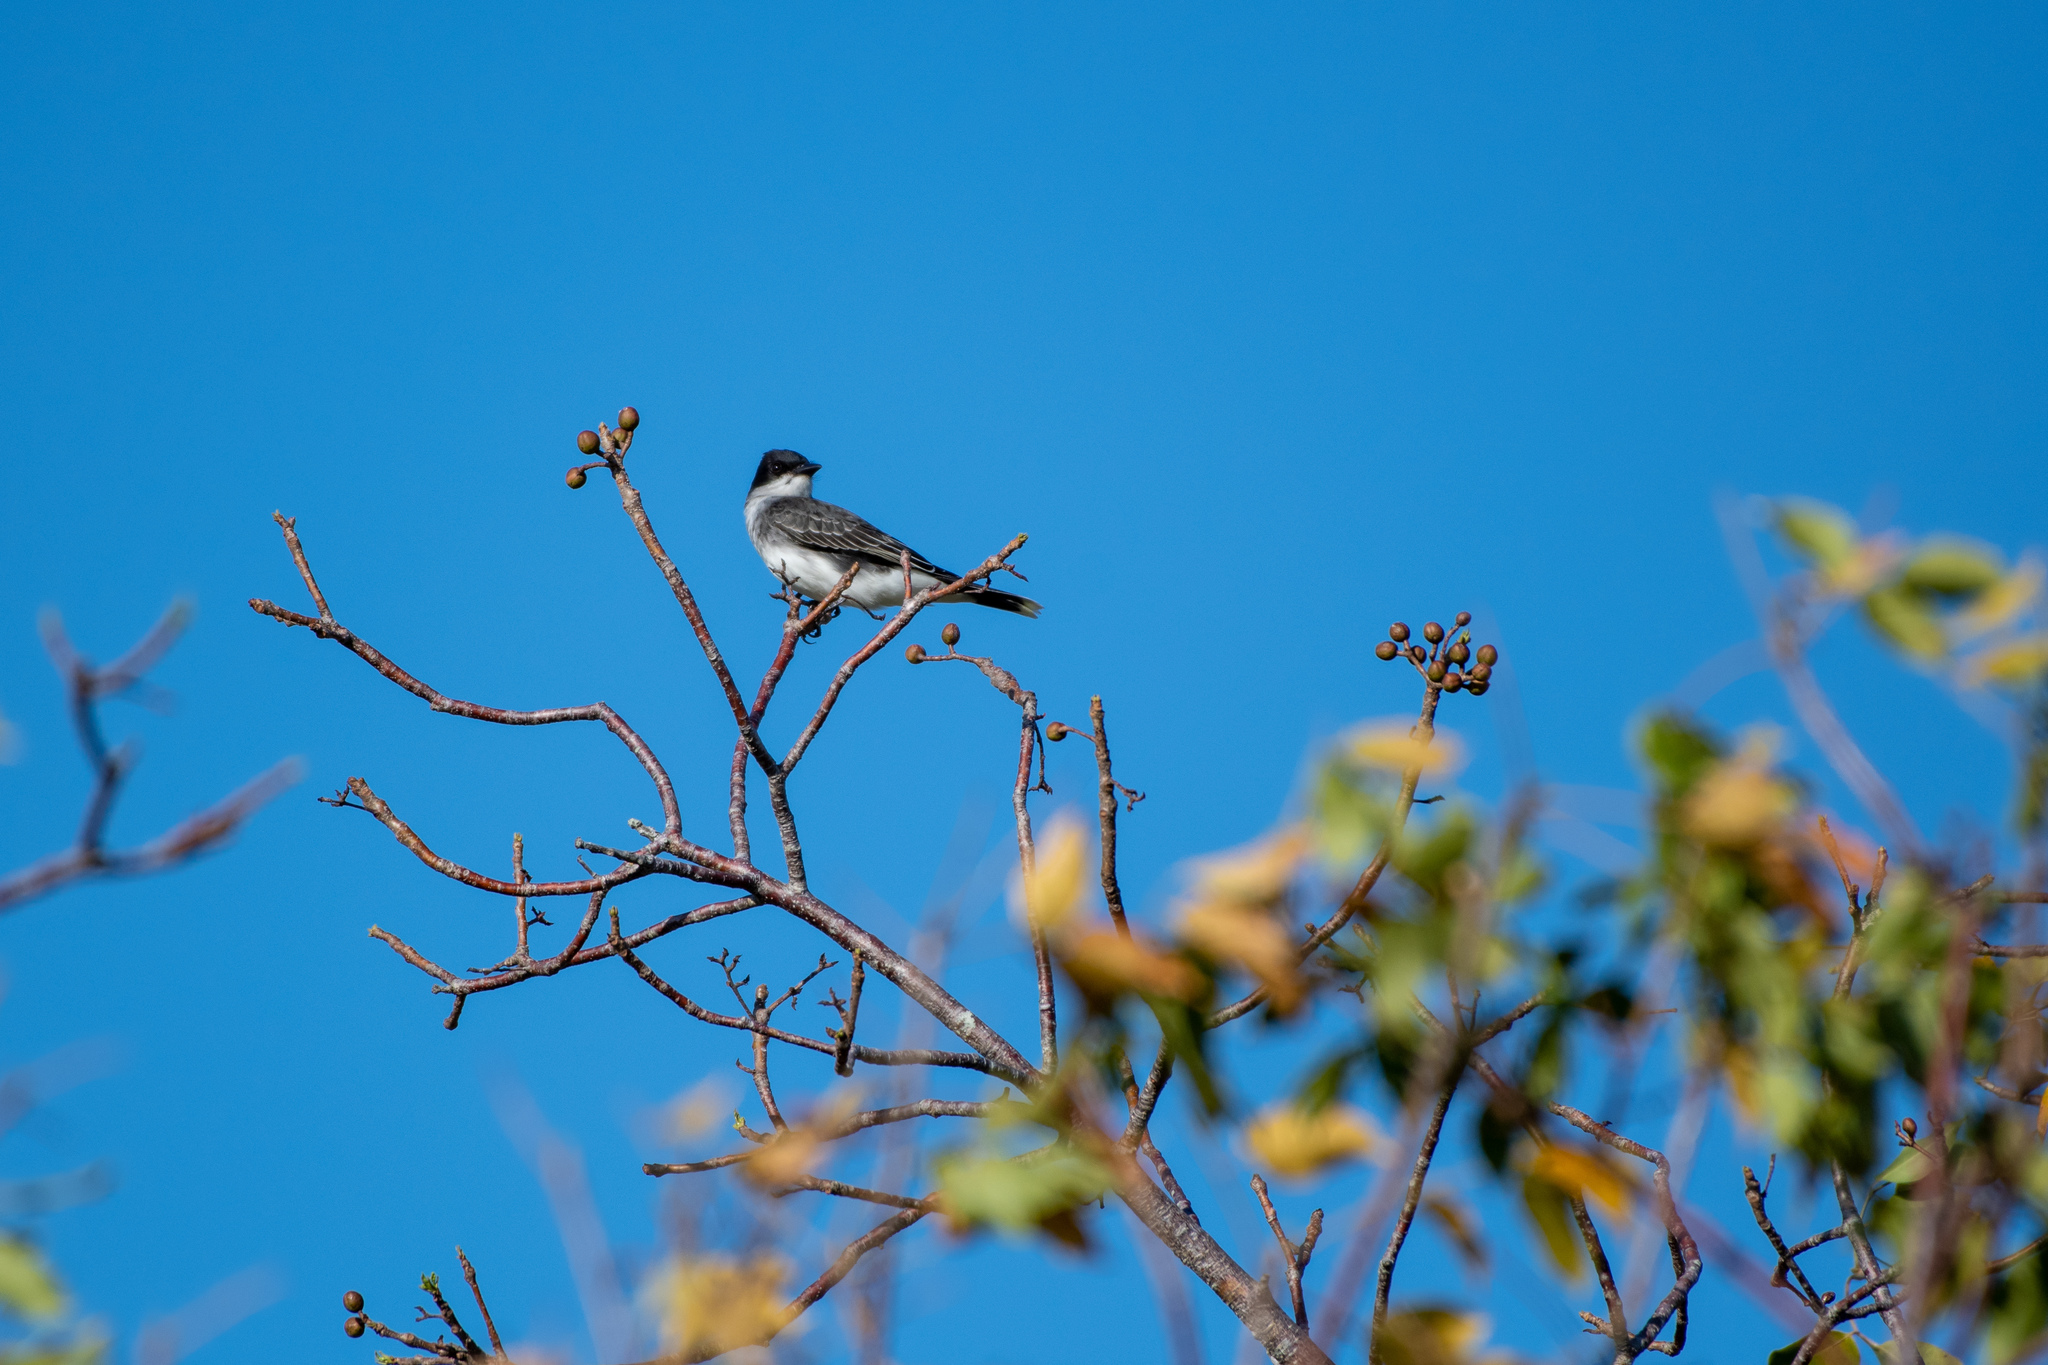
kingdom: Animalia
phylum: Chordata
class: Aves
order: Passeriformes
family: Tyrannidae
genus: Tyrannus
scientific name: Tyrannus tyrannus
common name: Eastern kingbird
